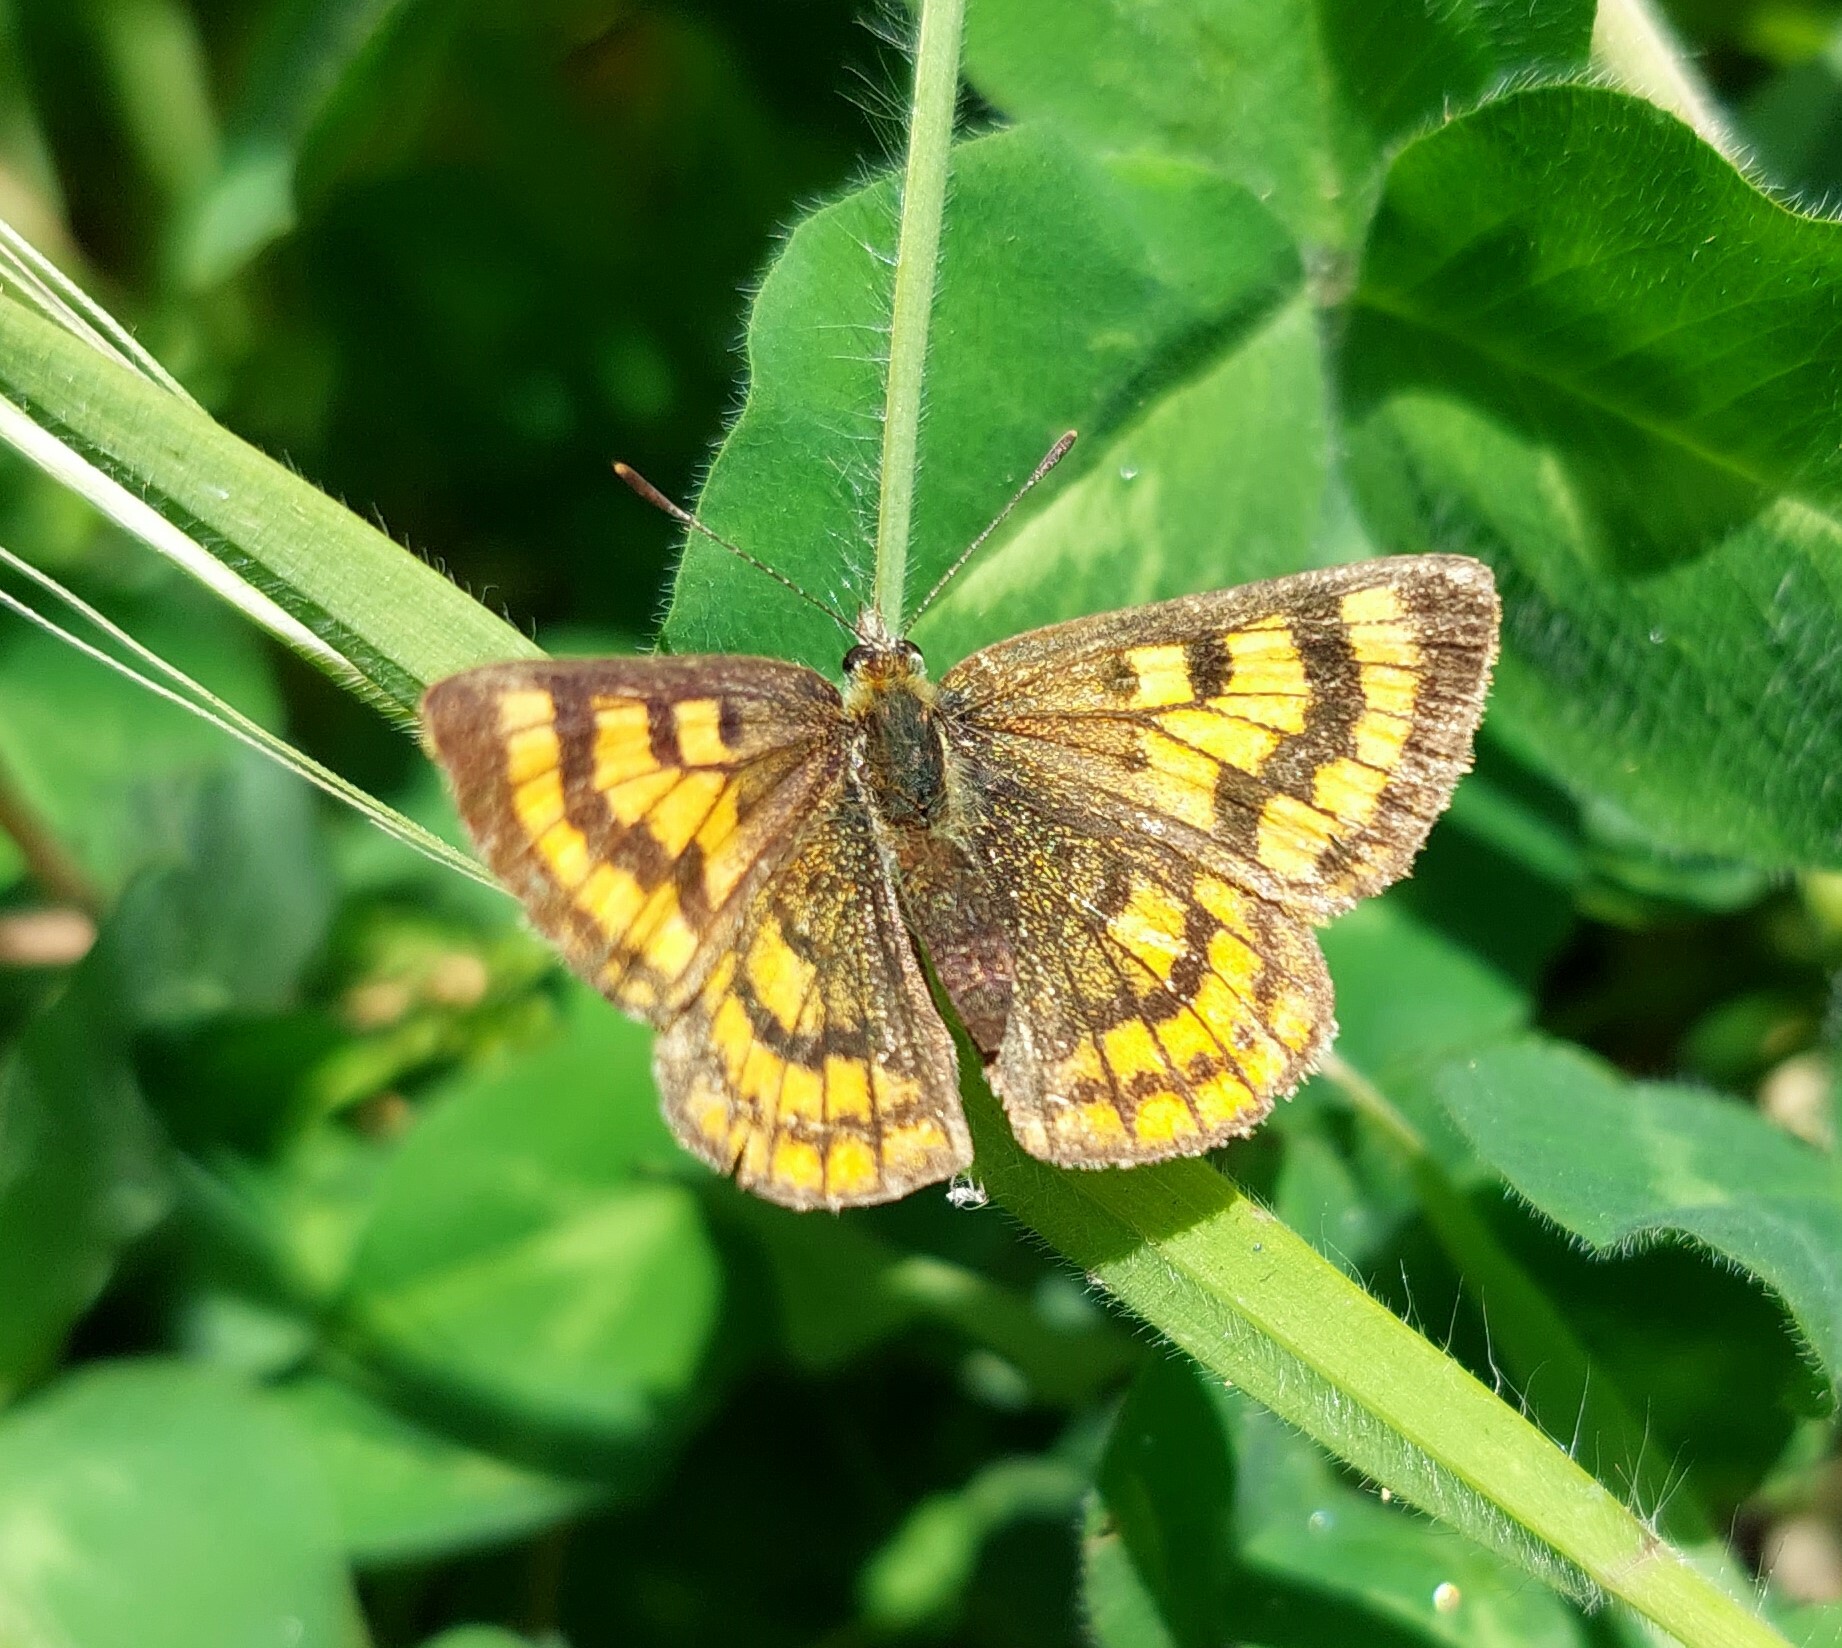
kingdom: Animalia
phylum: Arthropoda
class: Insecta
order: Lepidoptera
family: Lycaenidae
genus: Lycaena
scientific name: Lycaena salustius
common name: North island coastal copper
